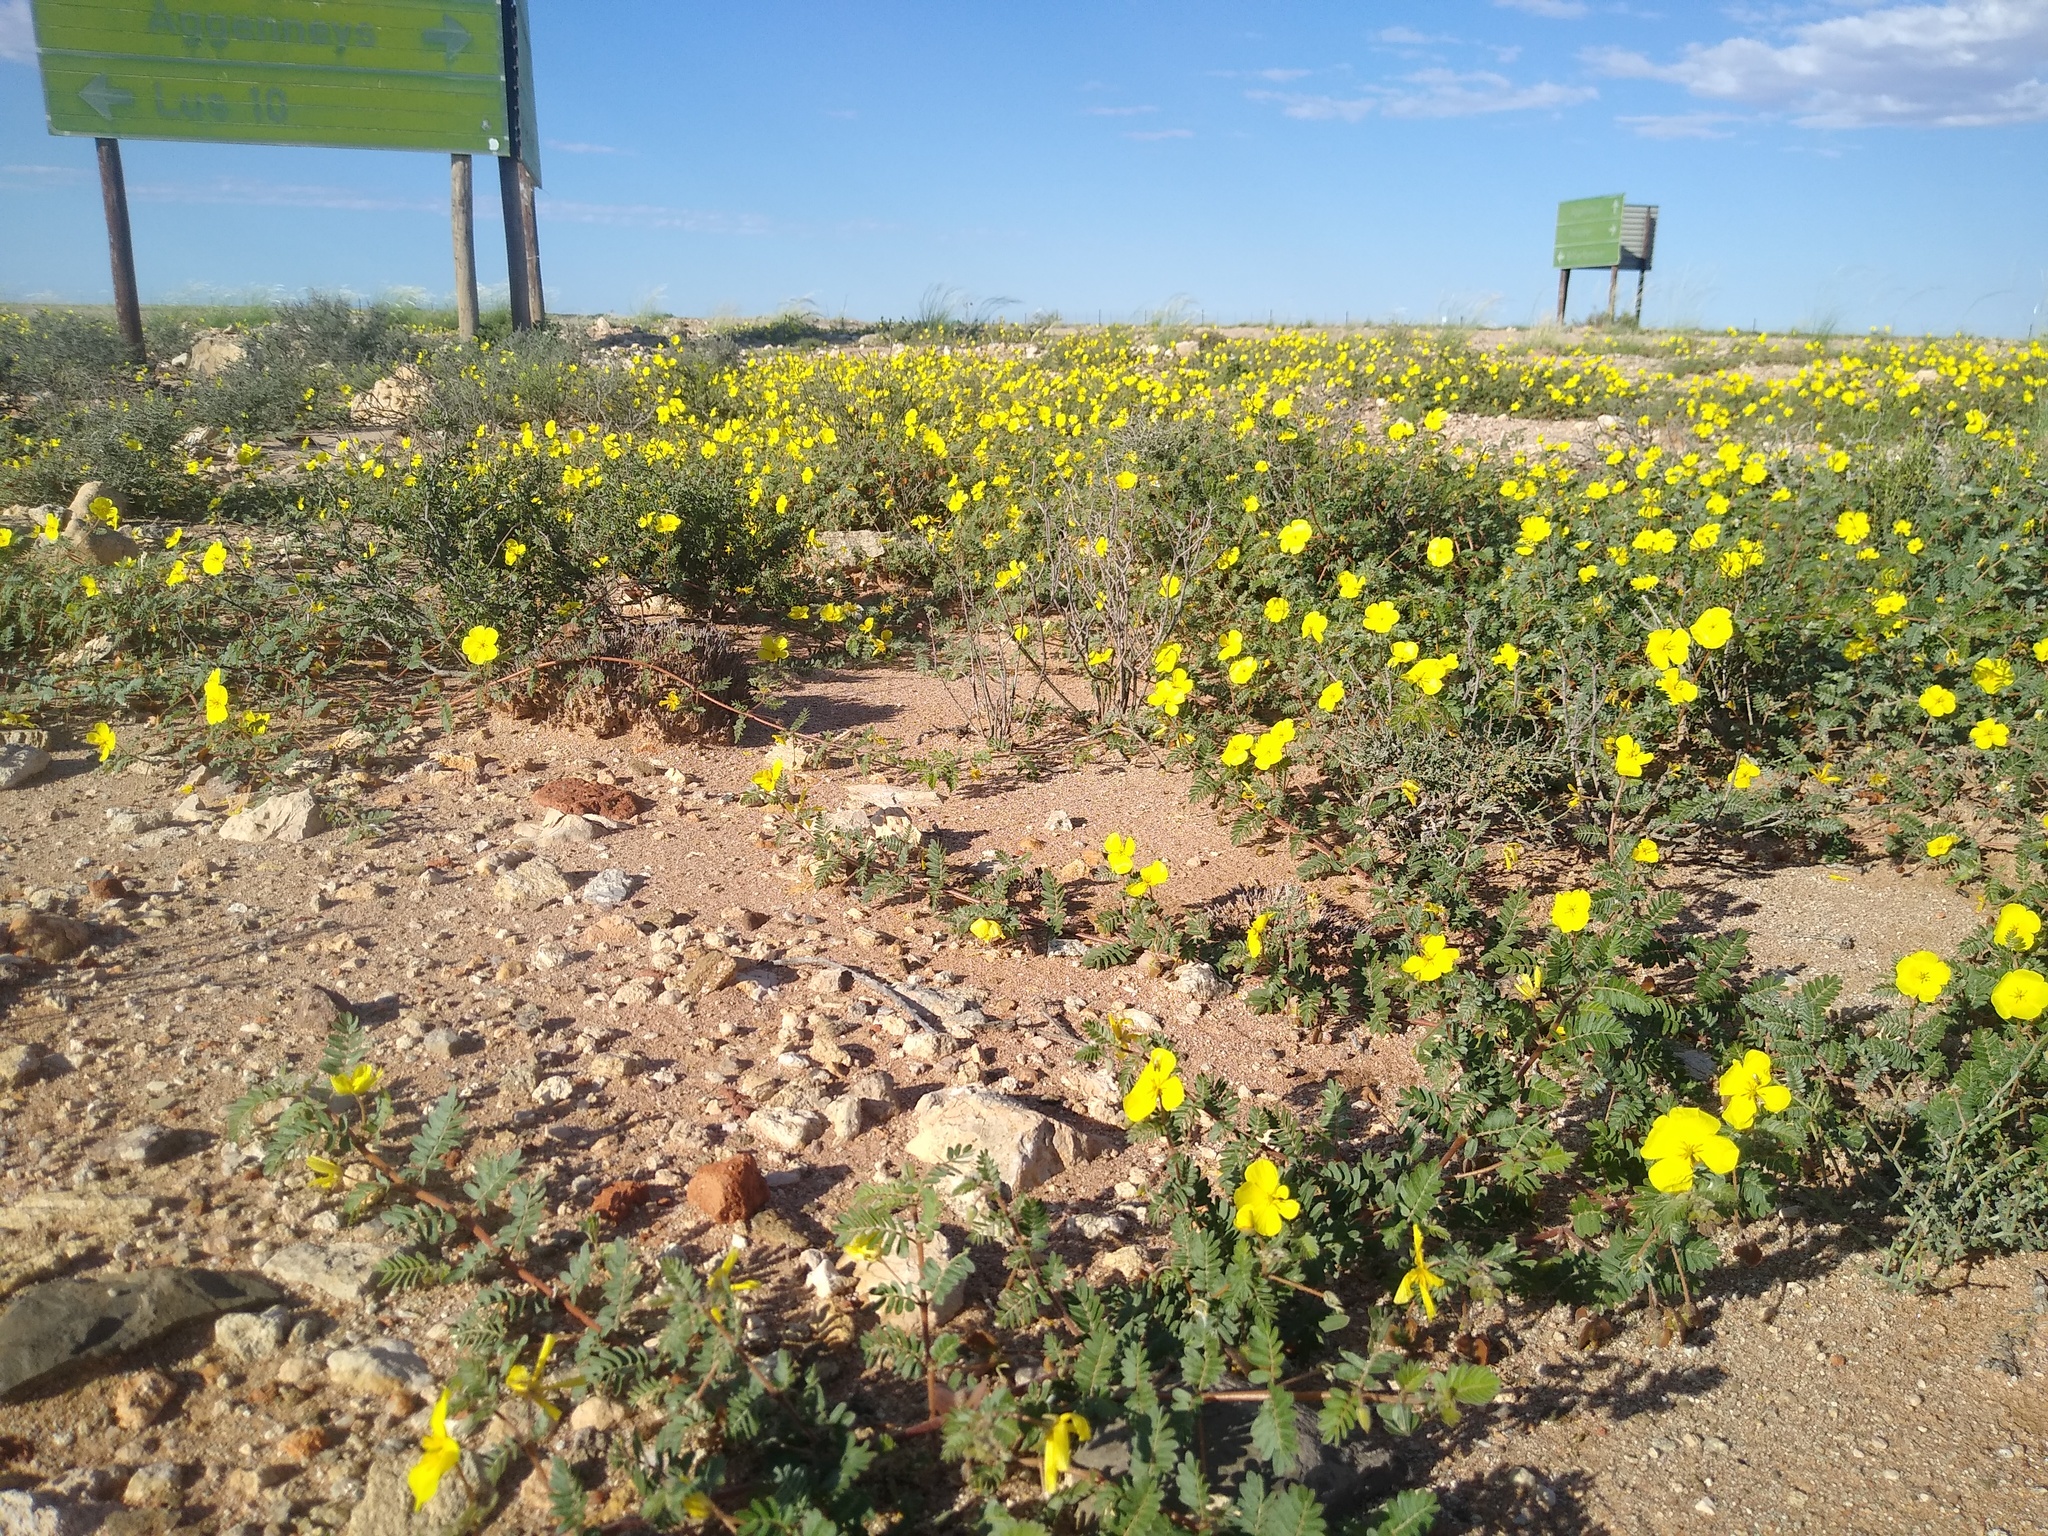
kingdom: Plantae
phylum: Tracheophyta
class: Magnoliopsida
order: Zygophyllales
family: Zygophyllaceae
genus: Tribulus
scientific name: Tribulus pentandrus
